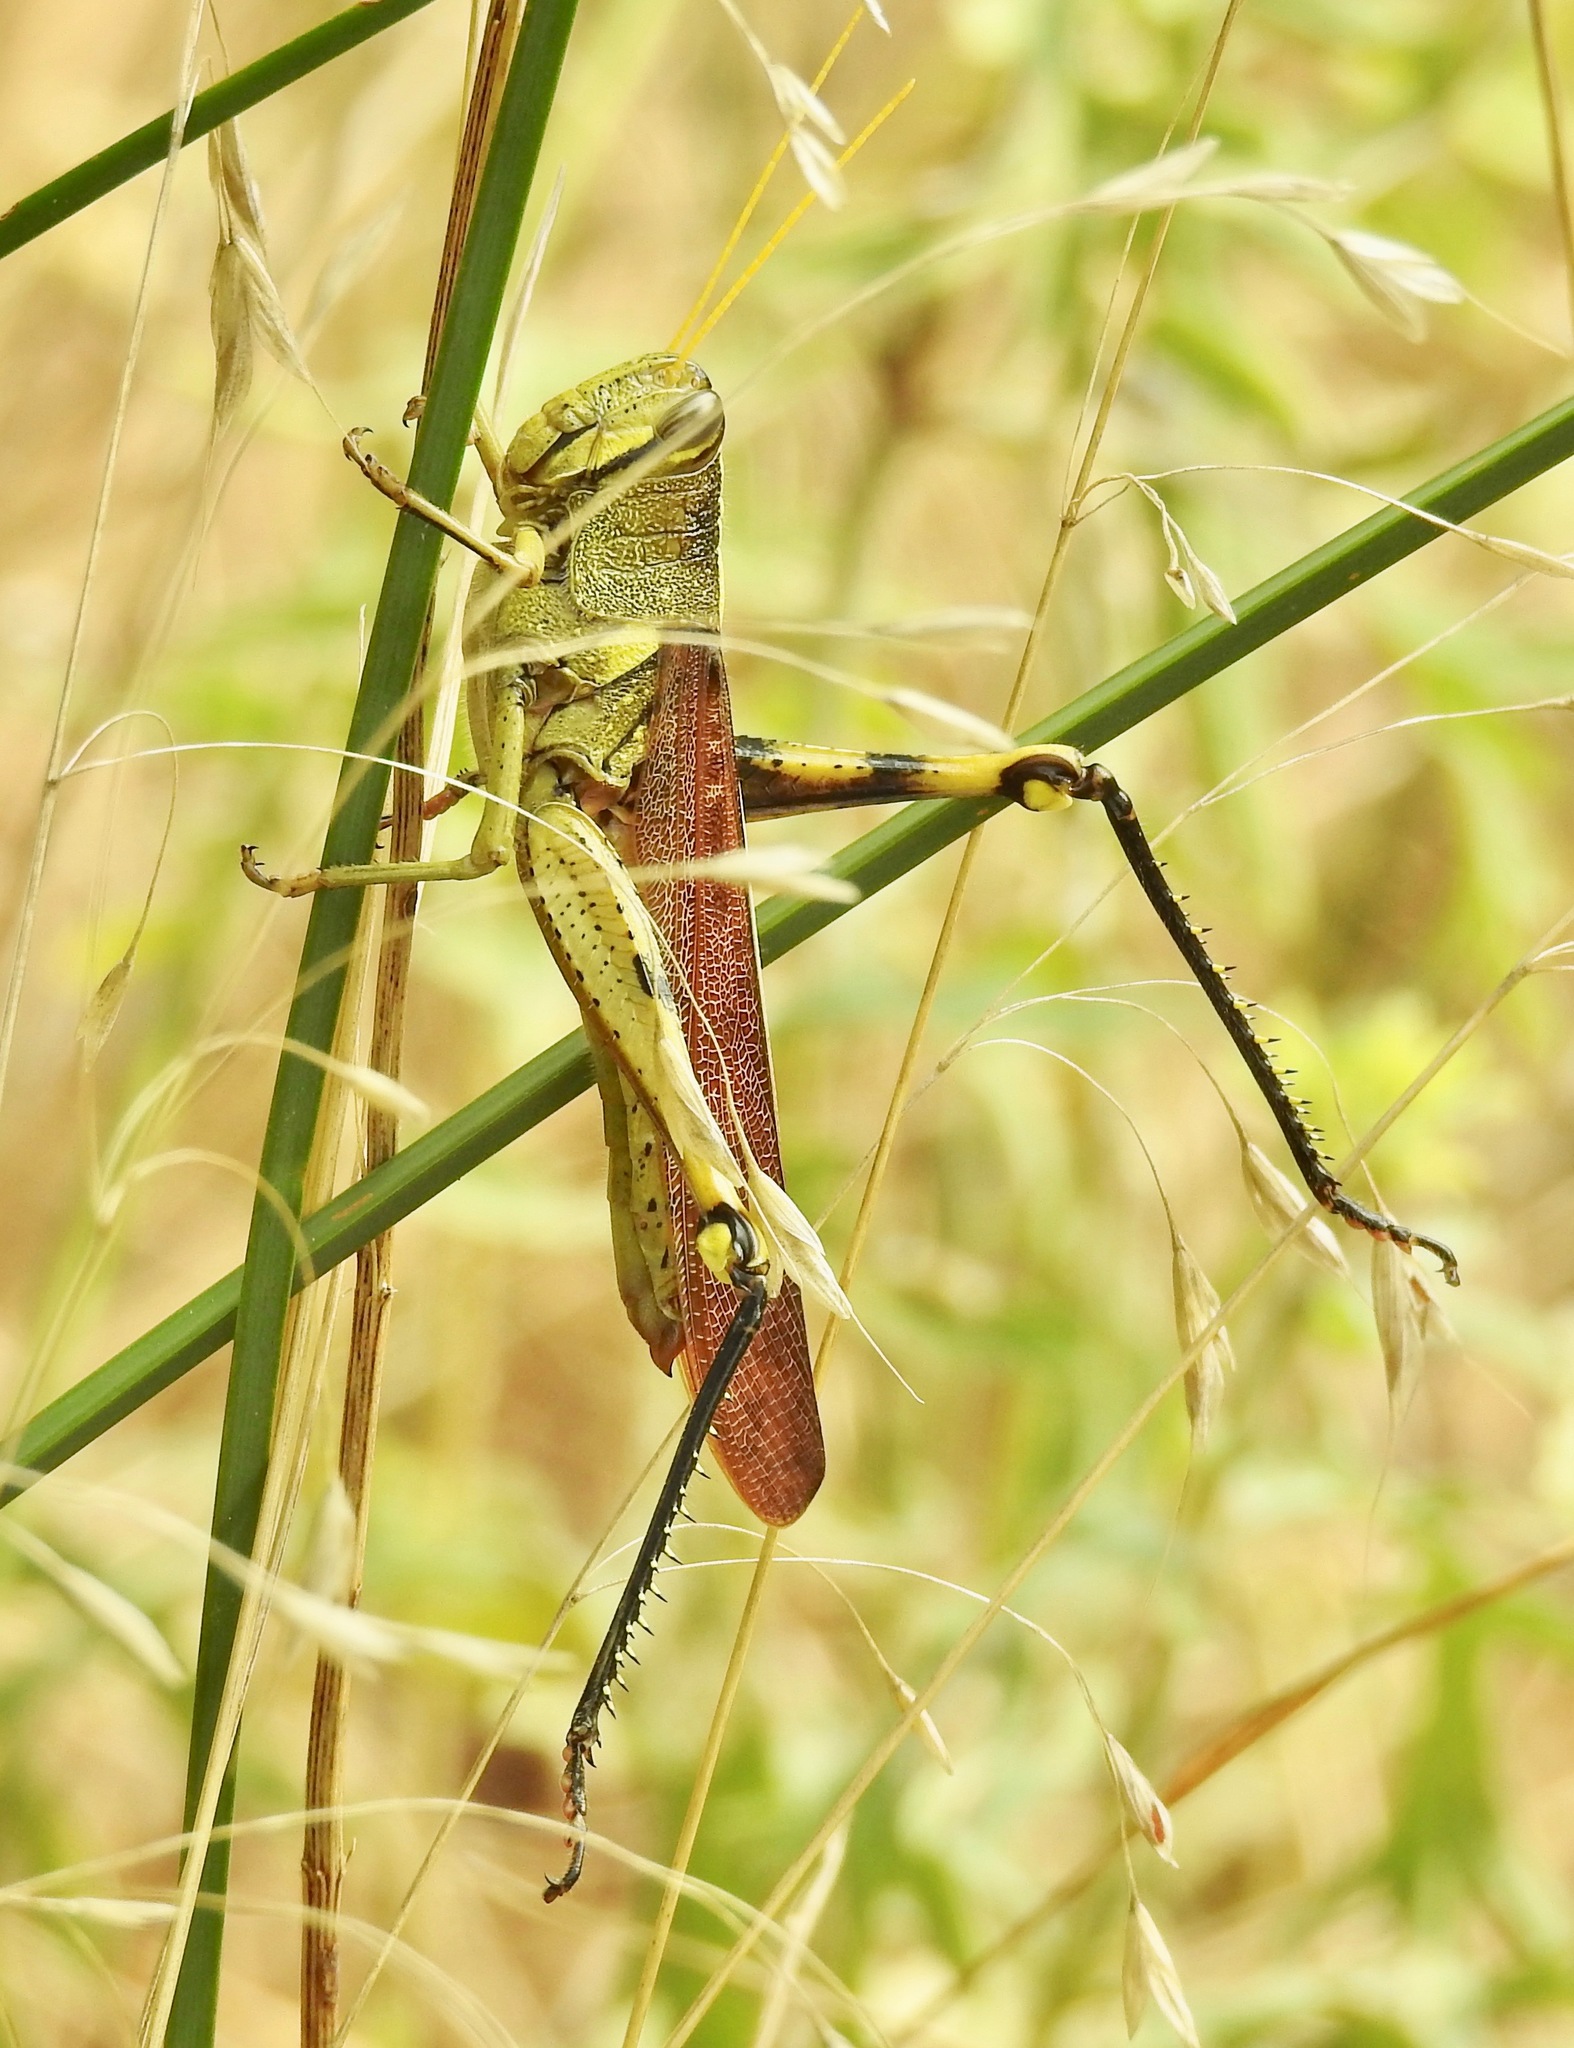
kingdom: Animalia
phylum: Arthropoda
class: Insecta
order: Orthoptera
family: Acrididae
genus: Schistocerca
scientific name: Schistocerca obscura
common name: Obscure bird grasshopper
